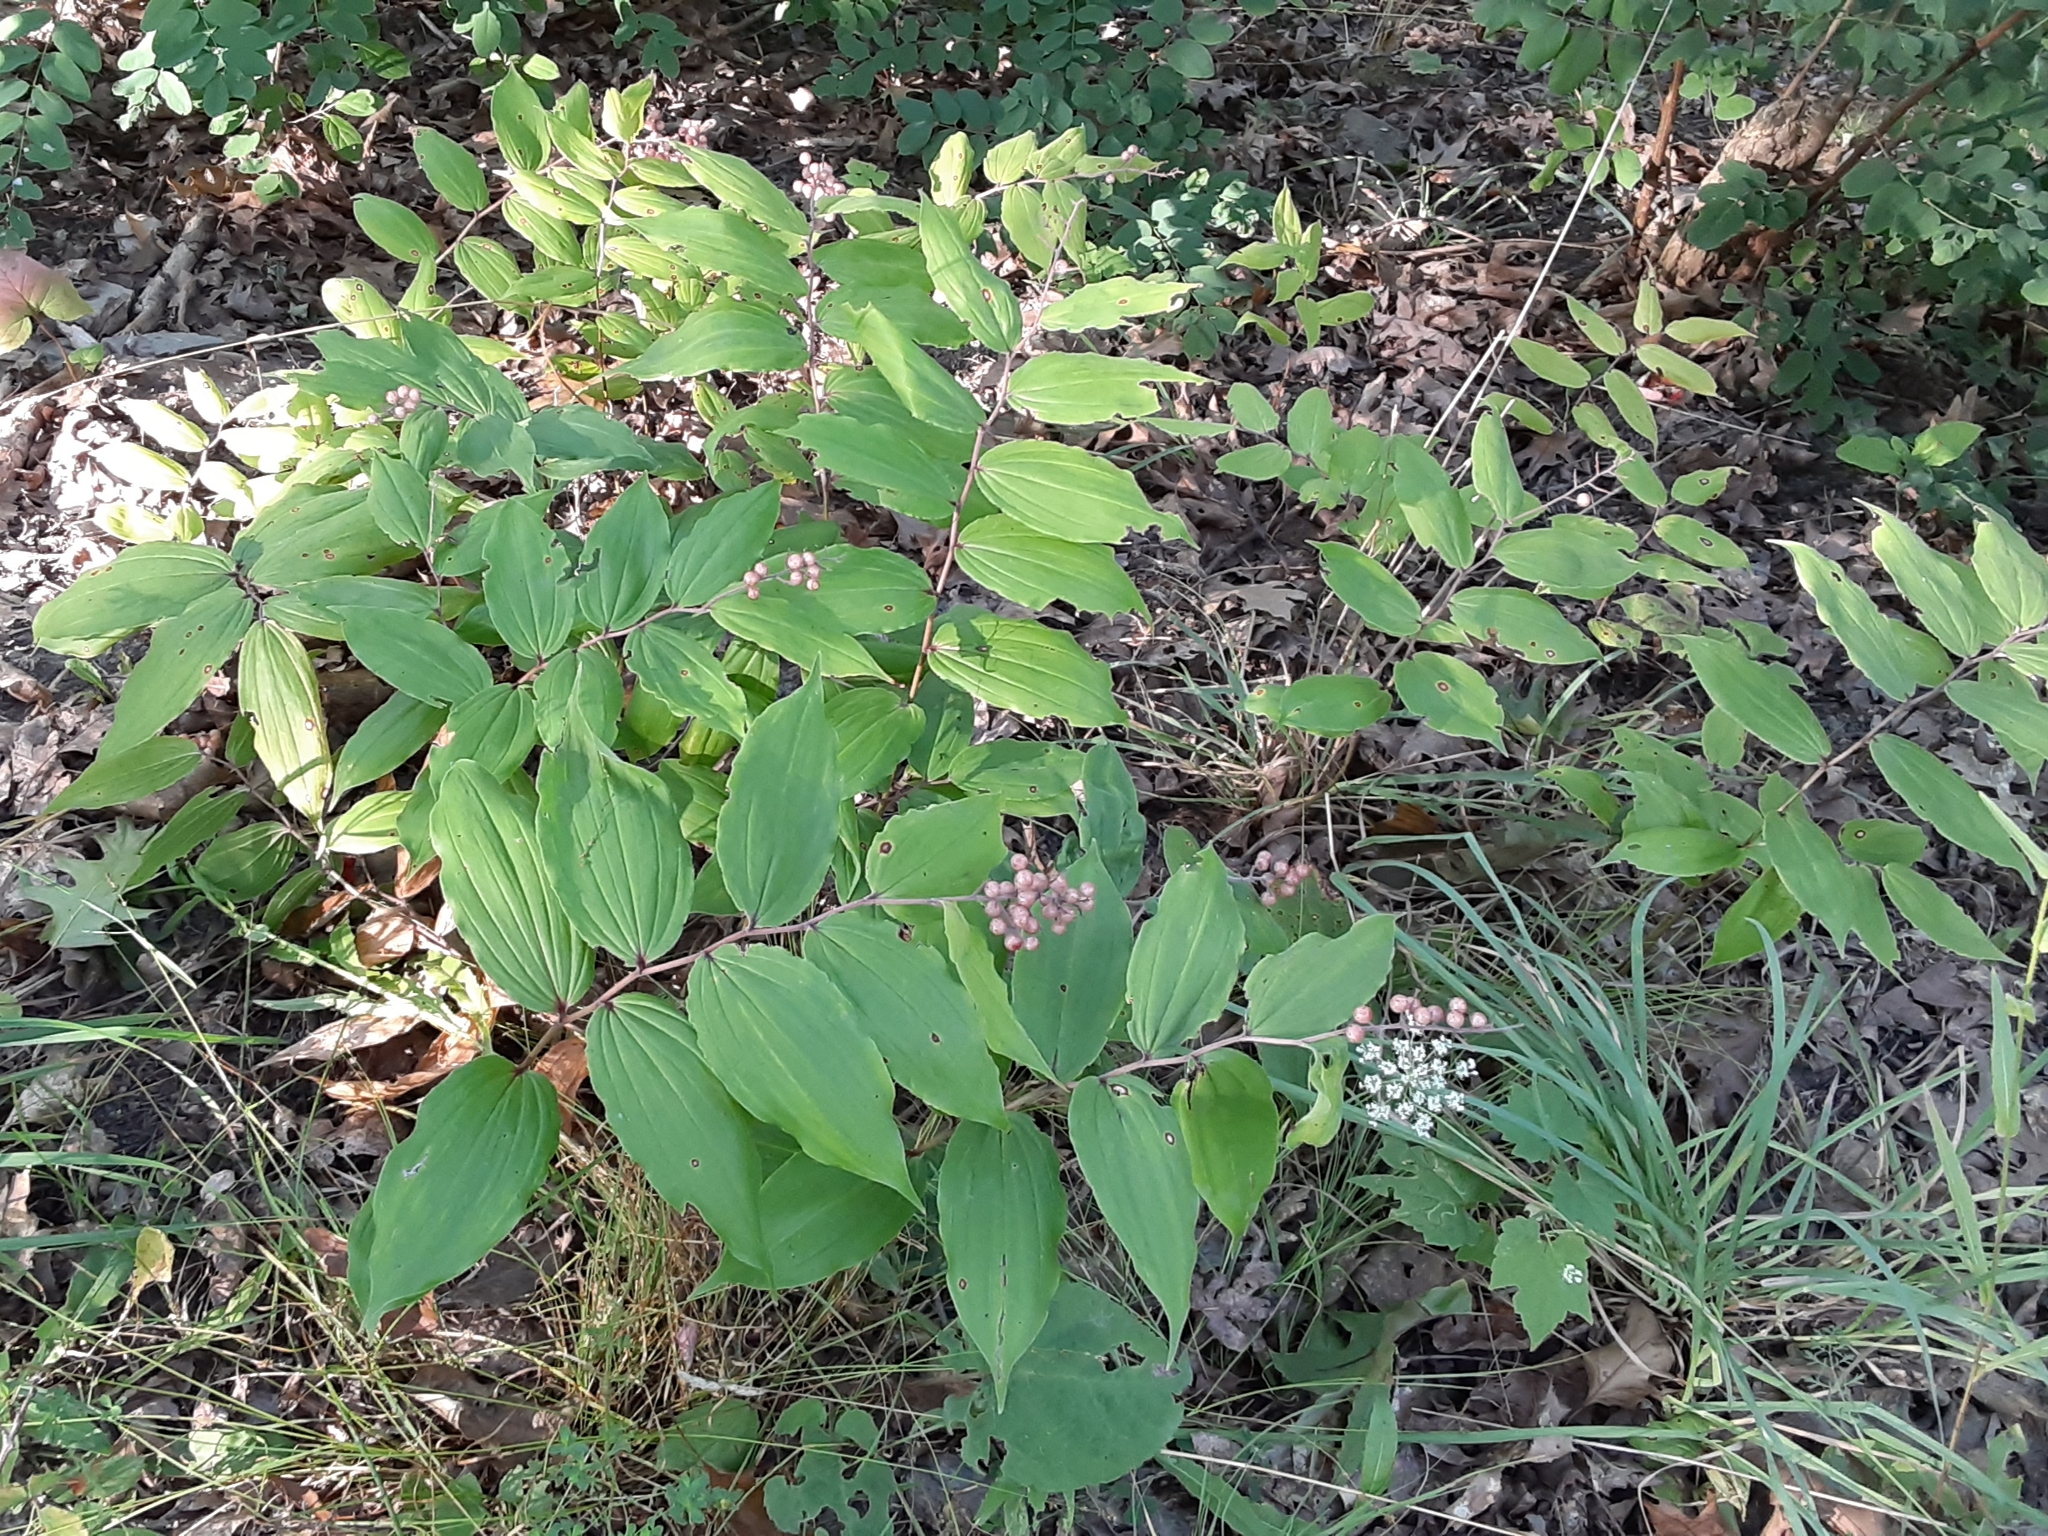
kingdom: Plantae
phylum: Tracheophyta
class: Liliopsida
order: Asparagales
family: Asparagaceae
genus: Maianthemum
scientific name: Maianthemum racemosum
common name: False spikenard
